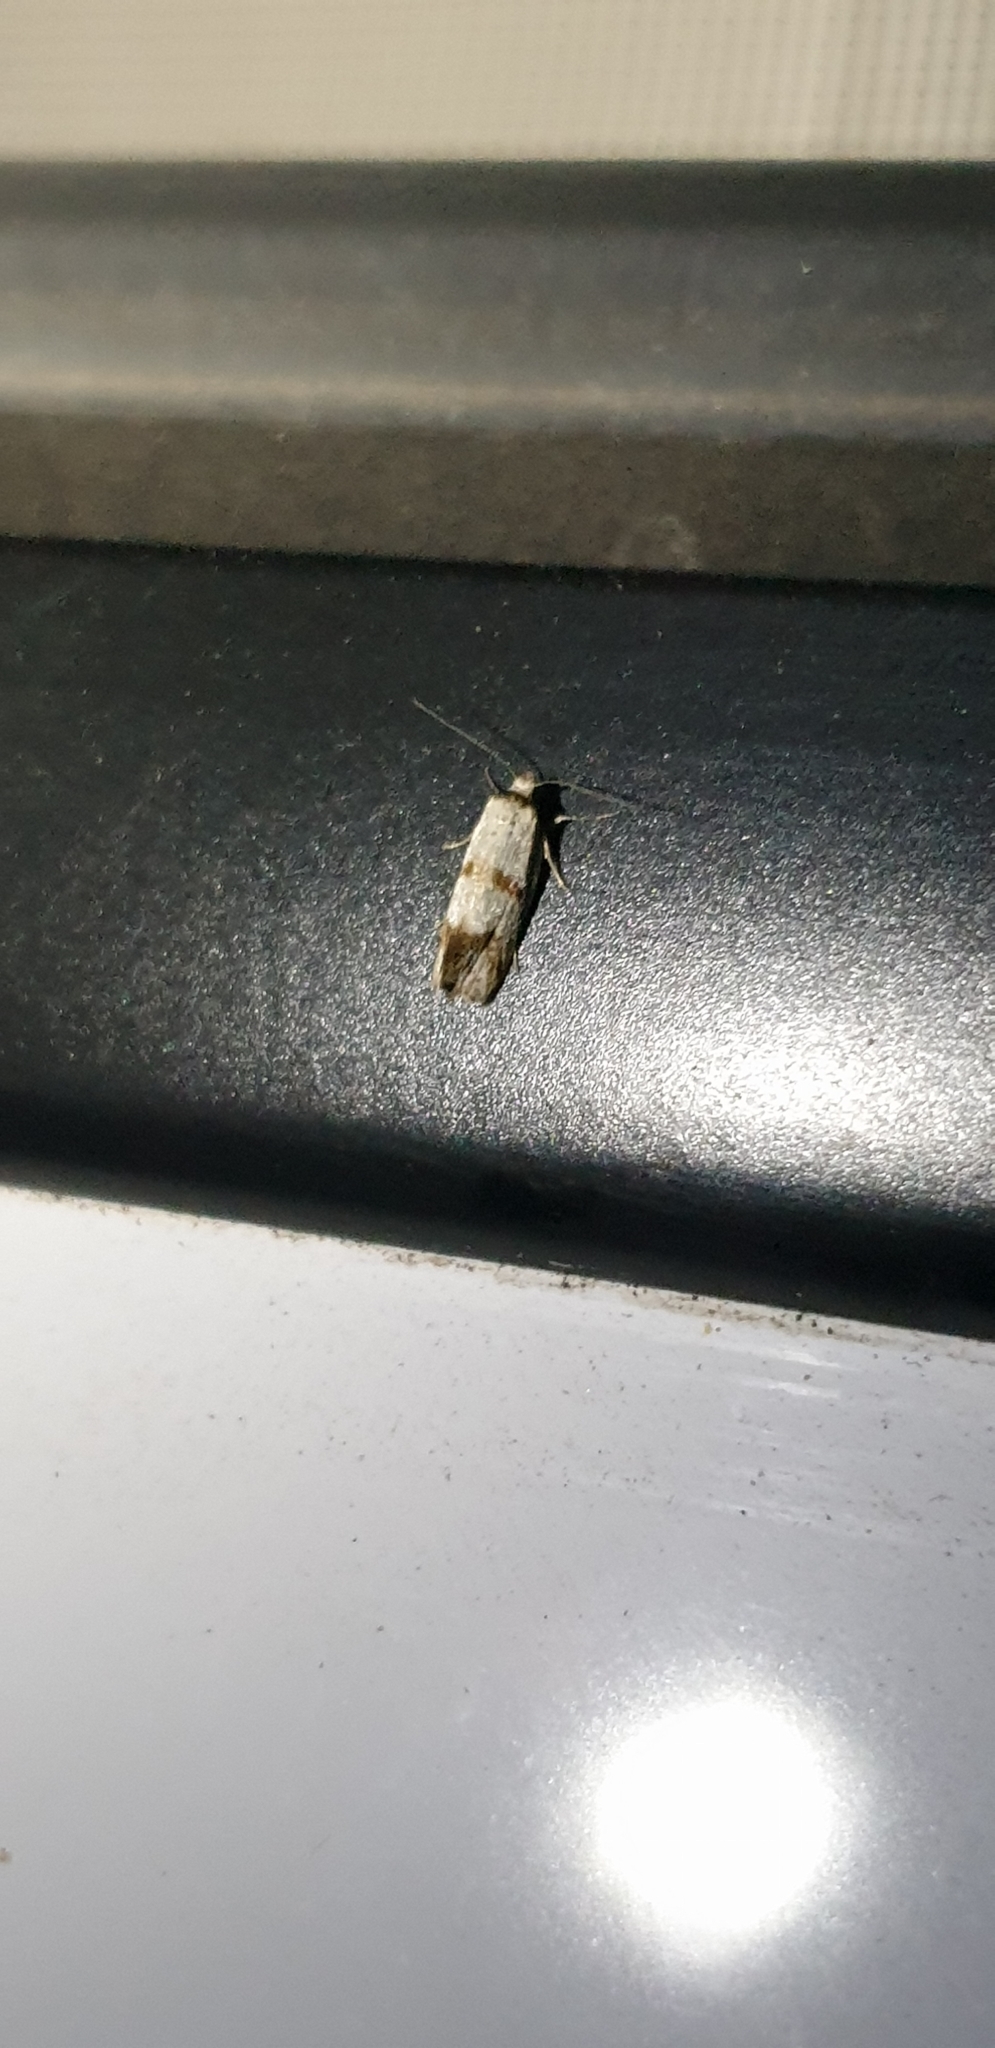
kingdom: Animalia
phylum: Arthropoda
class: Insecta
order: Lepidoptera
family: Oecophoridae
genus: Philobota
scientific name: Philobota curvilinea
